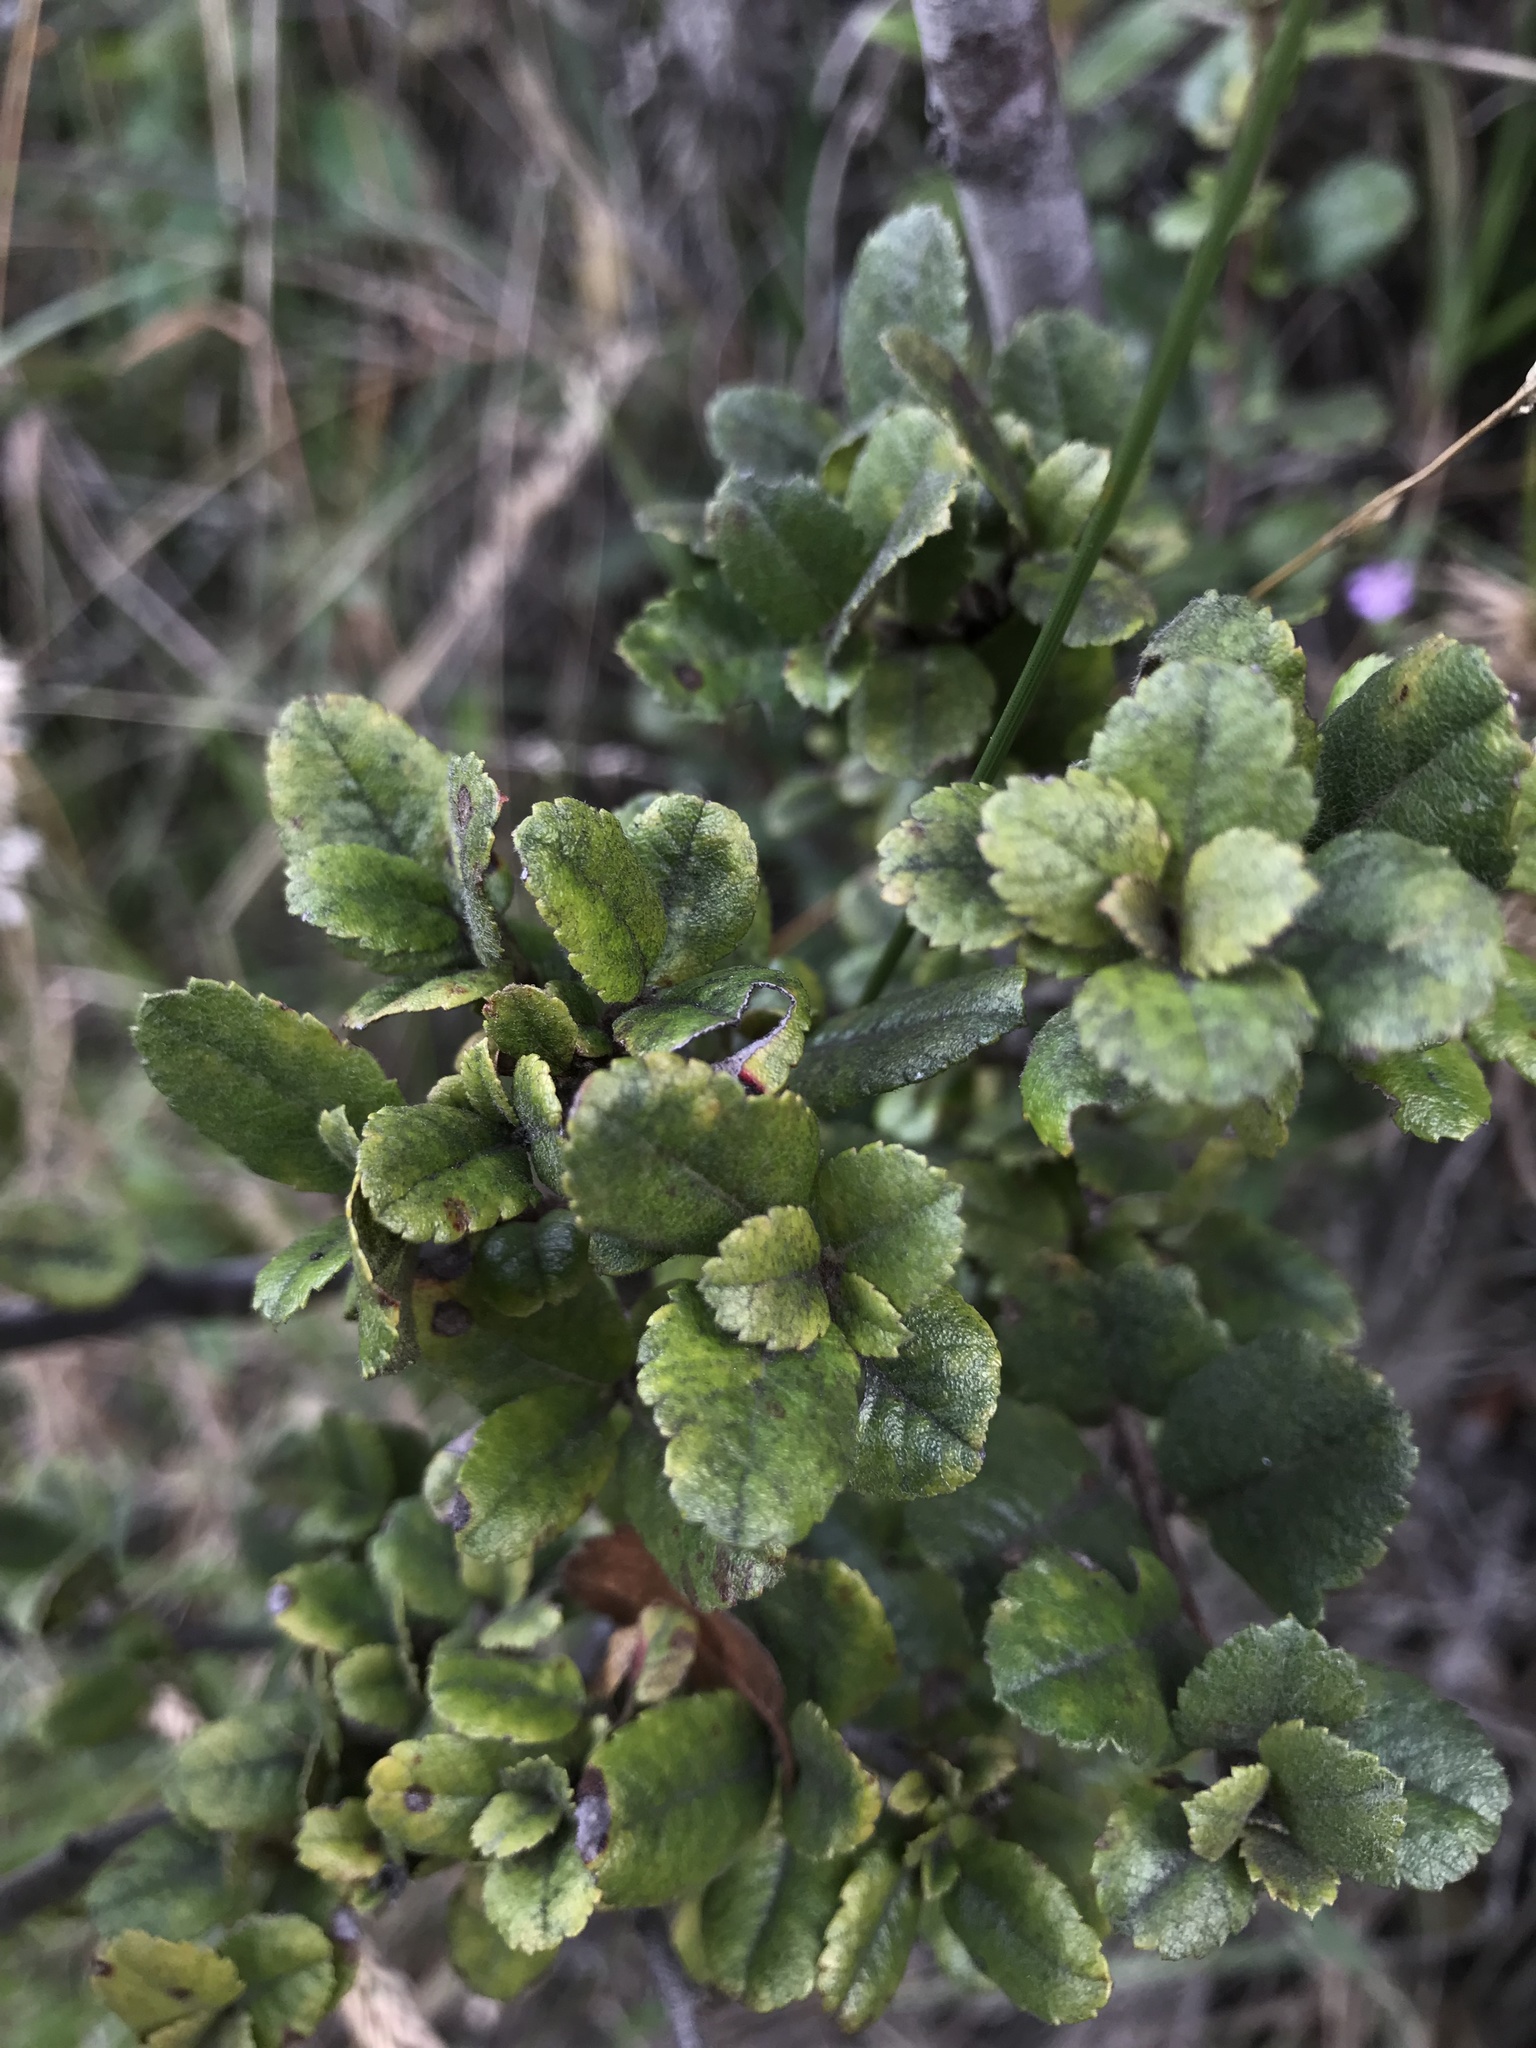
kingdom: Plantae
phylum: Tracheophyta
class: Magnoliopsida
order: Rosales
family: Rosaceae
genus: Hesperomeles
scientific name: Hesperomeles goudotiana
